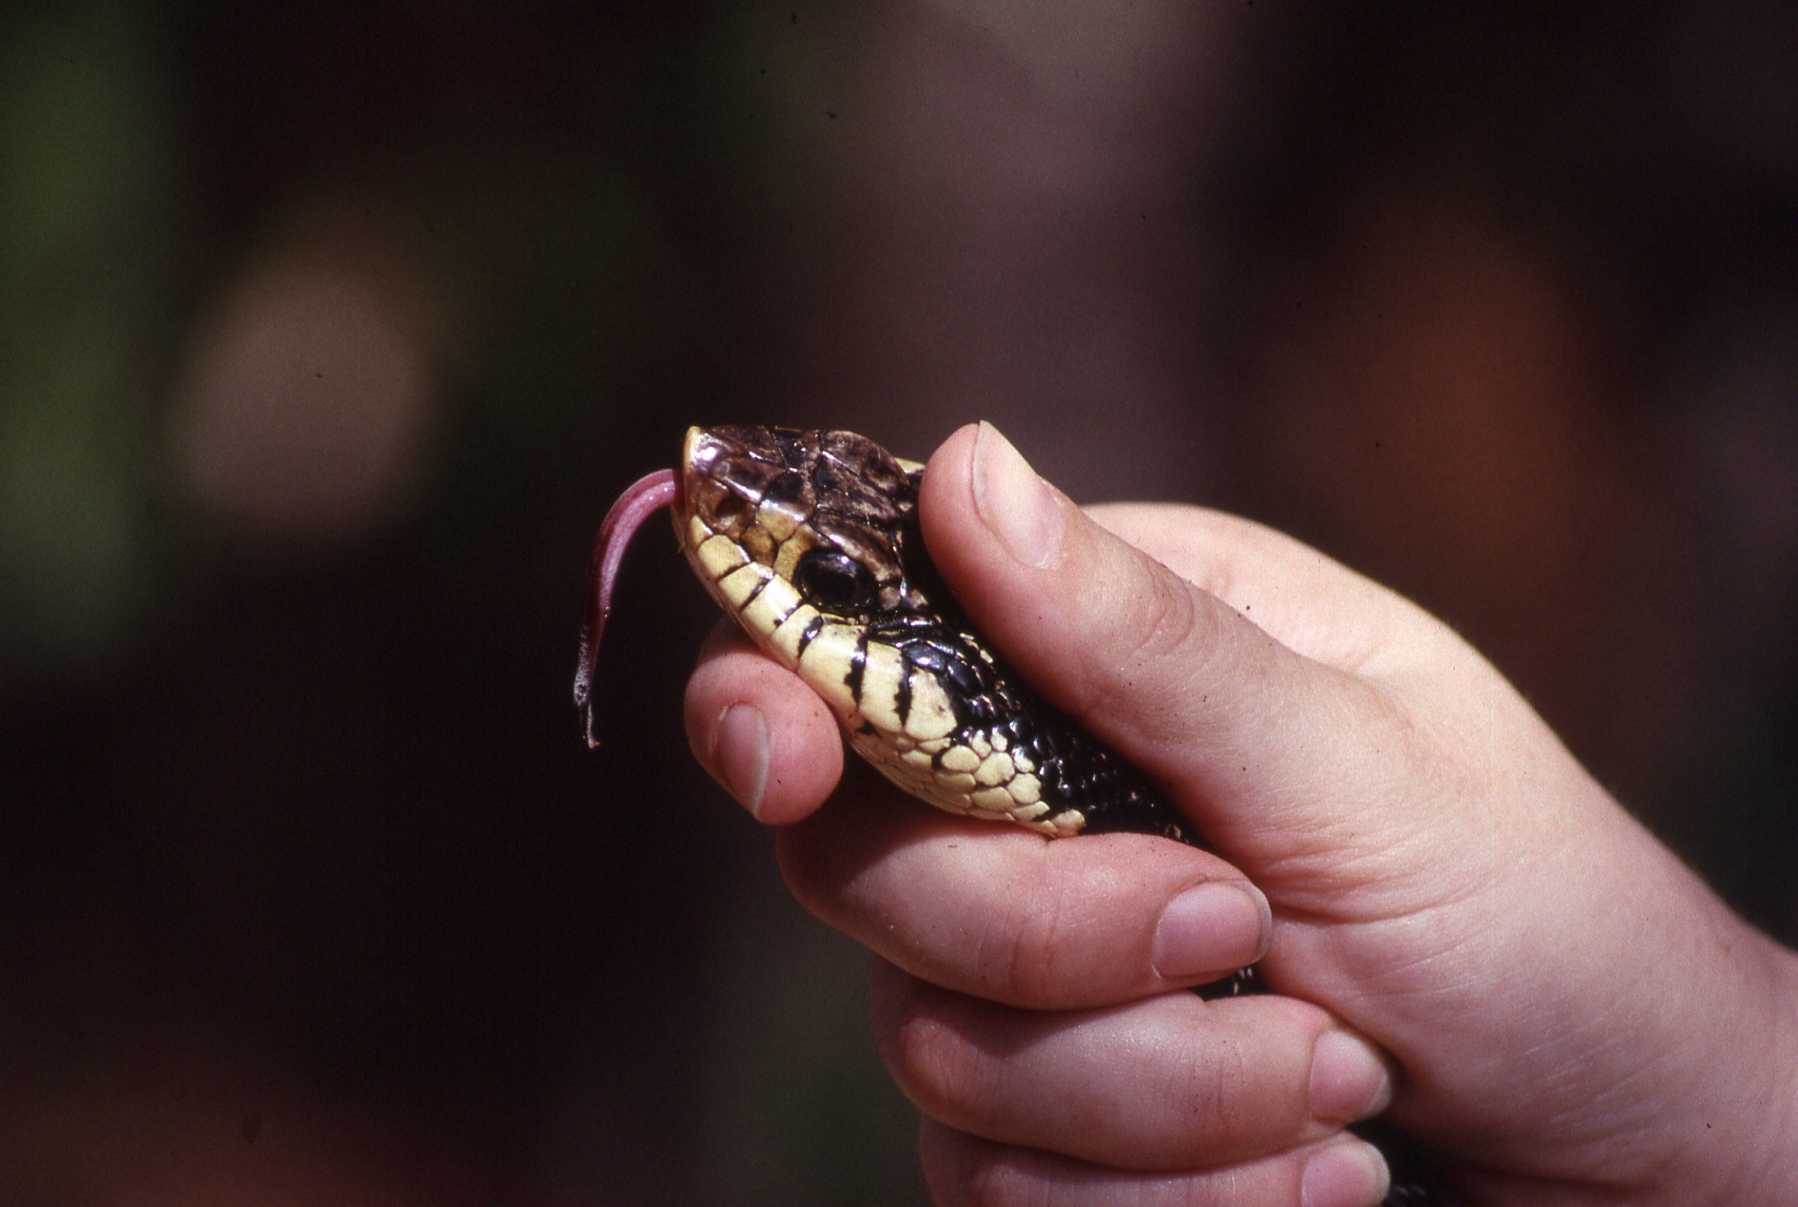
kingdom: Animalia
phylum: Chordata
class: Squamata
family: Pseudoxyrhophiidae
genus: Leioheterodon
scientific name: Leioheterodon madagascariensis
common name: Malagasy giant hognose snake
